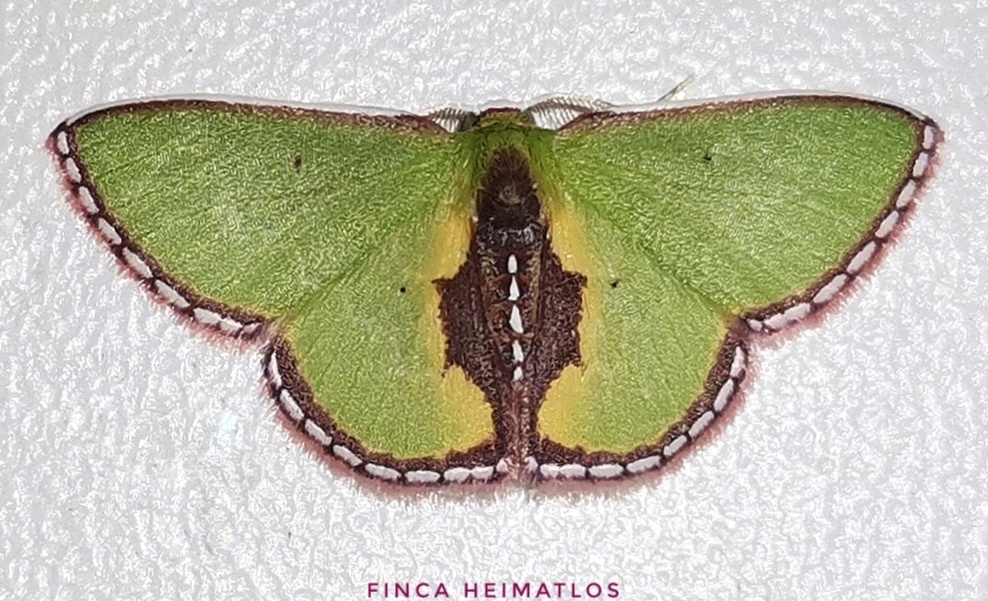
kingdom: Animalia
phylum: Arthropoda
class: Insecta
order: Lepidoptera
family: Geometridae
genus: Synchlora
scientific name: Synchlora astraeoides
